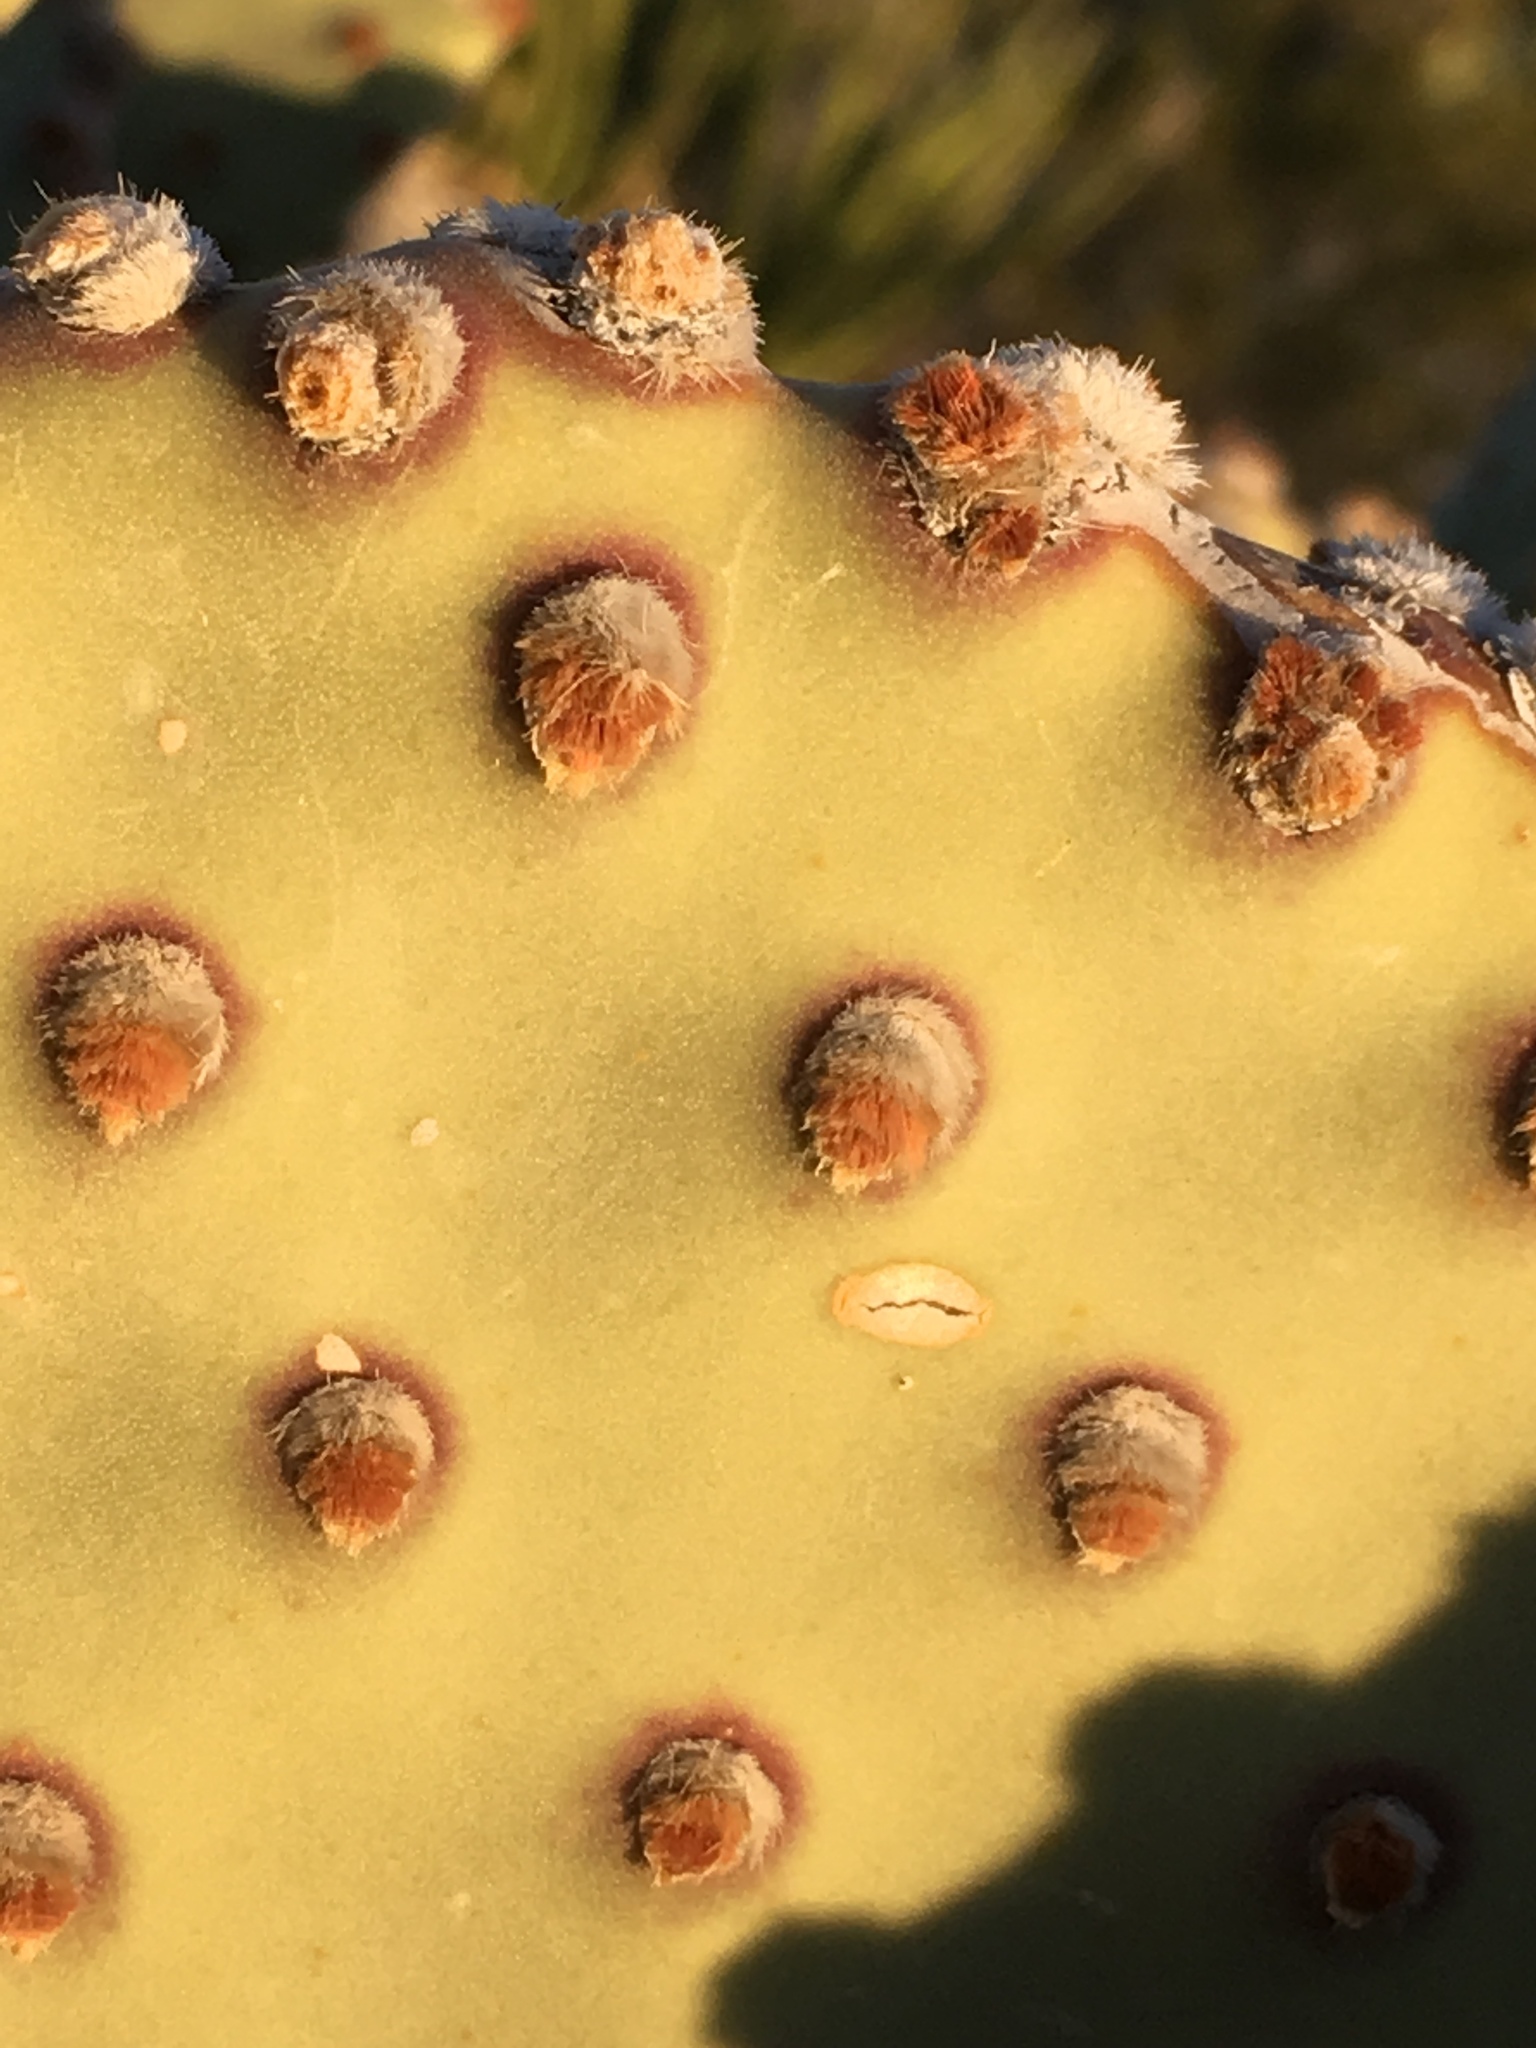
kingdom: Plantae
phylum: Tracheophyta
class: Magnoliopsida
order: Caryophyllales
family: Cactaceae
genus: Opuntia
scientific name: Opuntia rufida
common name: Blind pricklypear
